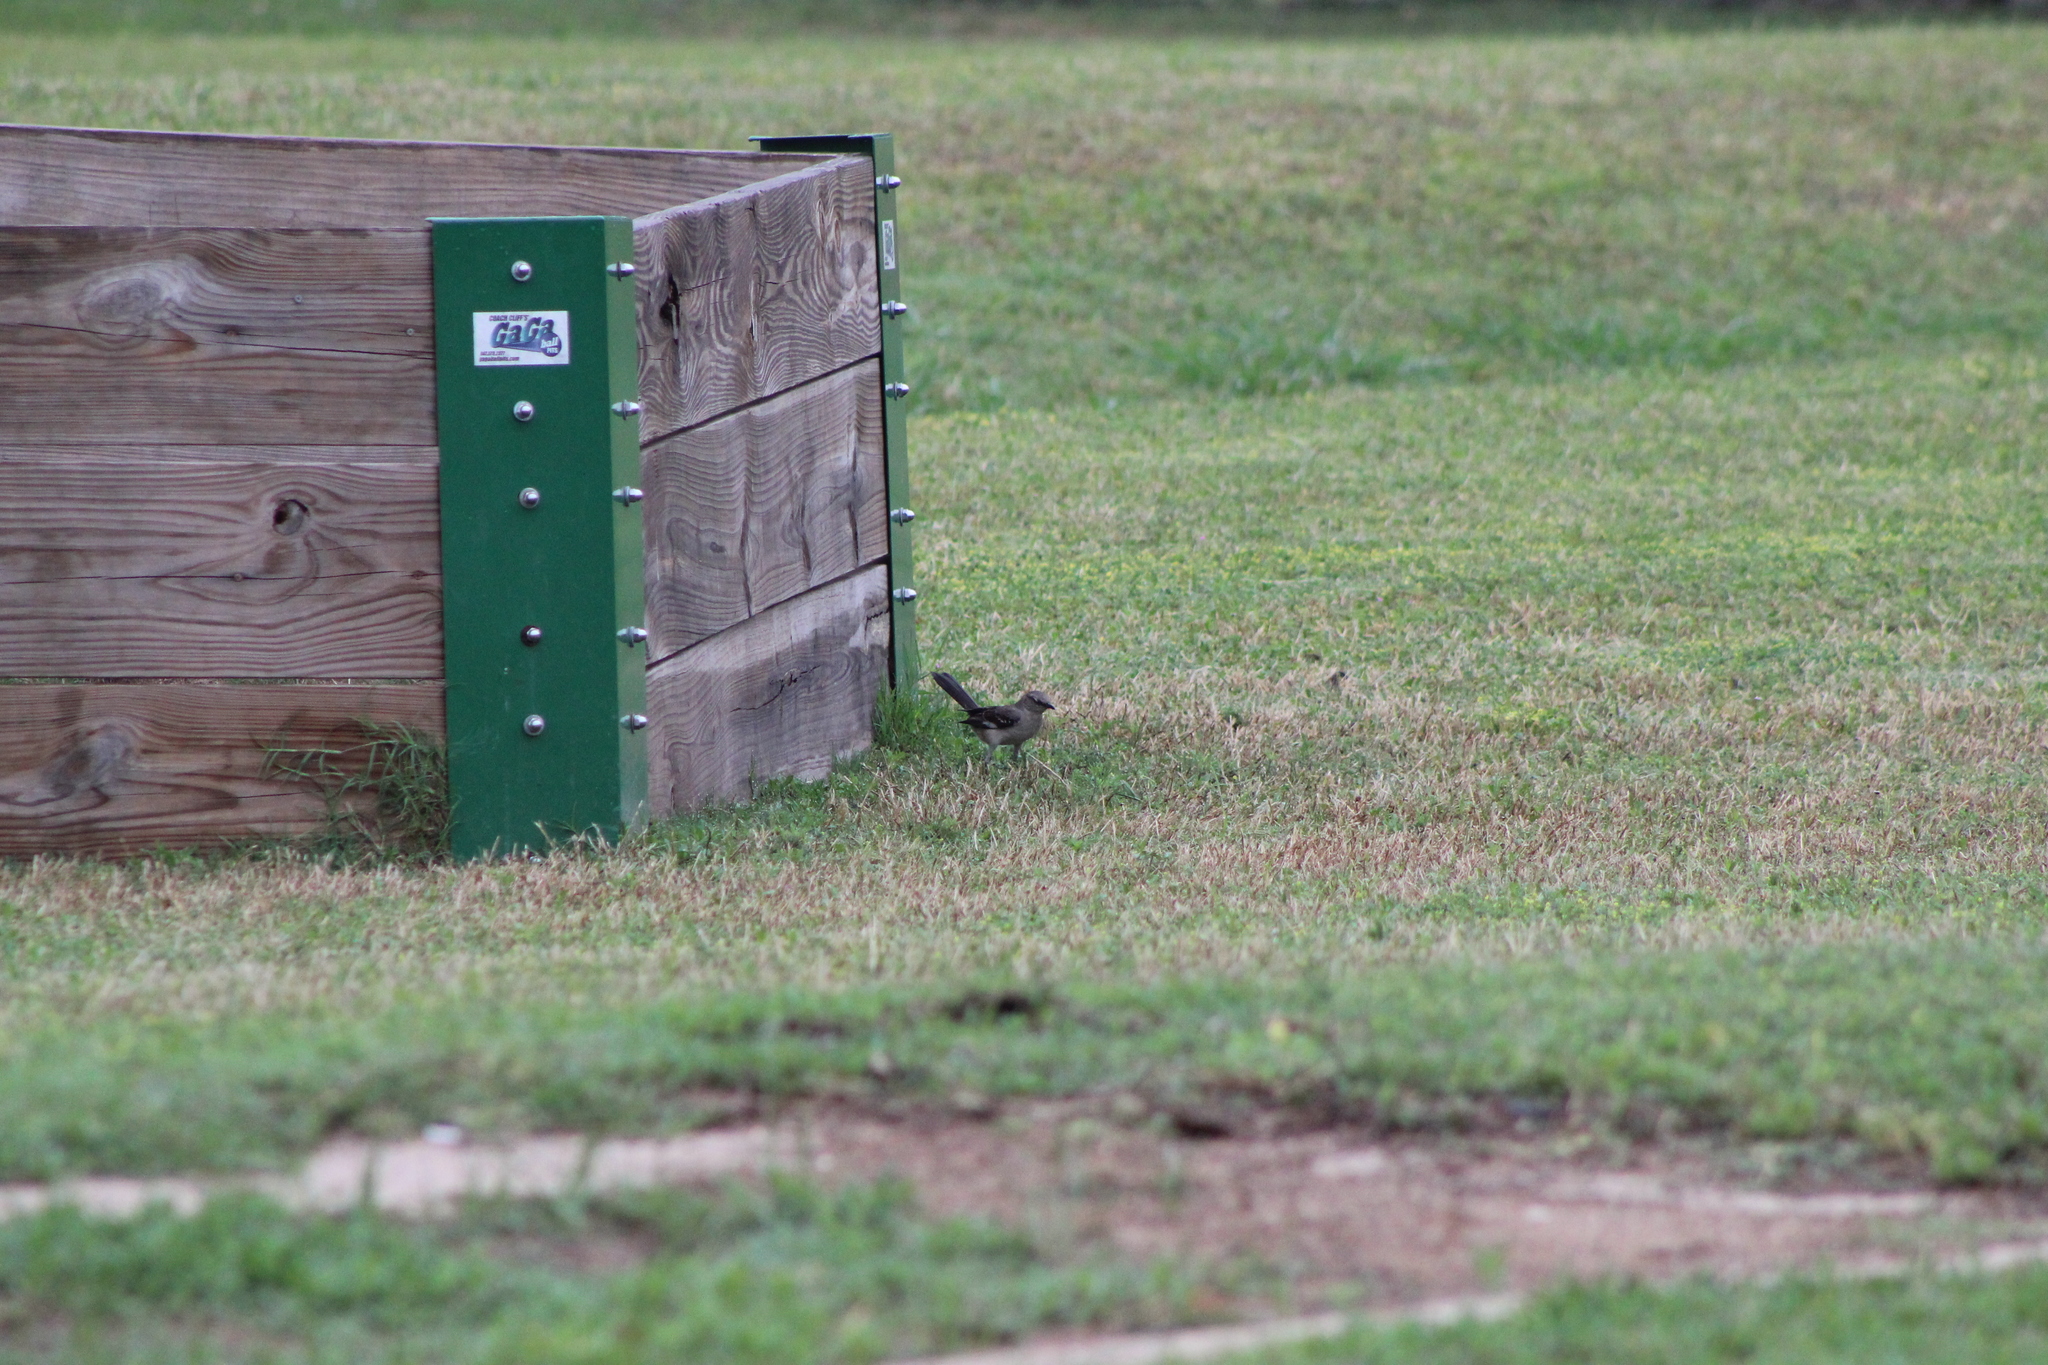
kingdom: Animalia
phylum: Chordata
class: Aves
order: Passeriformes
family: Mimidae
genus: Mimus
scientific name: Mimus polyglottos
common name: Northern mockingbird
